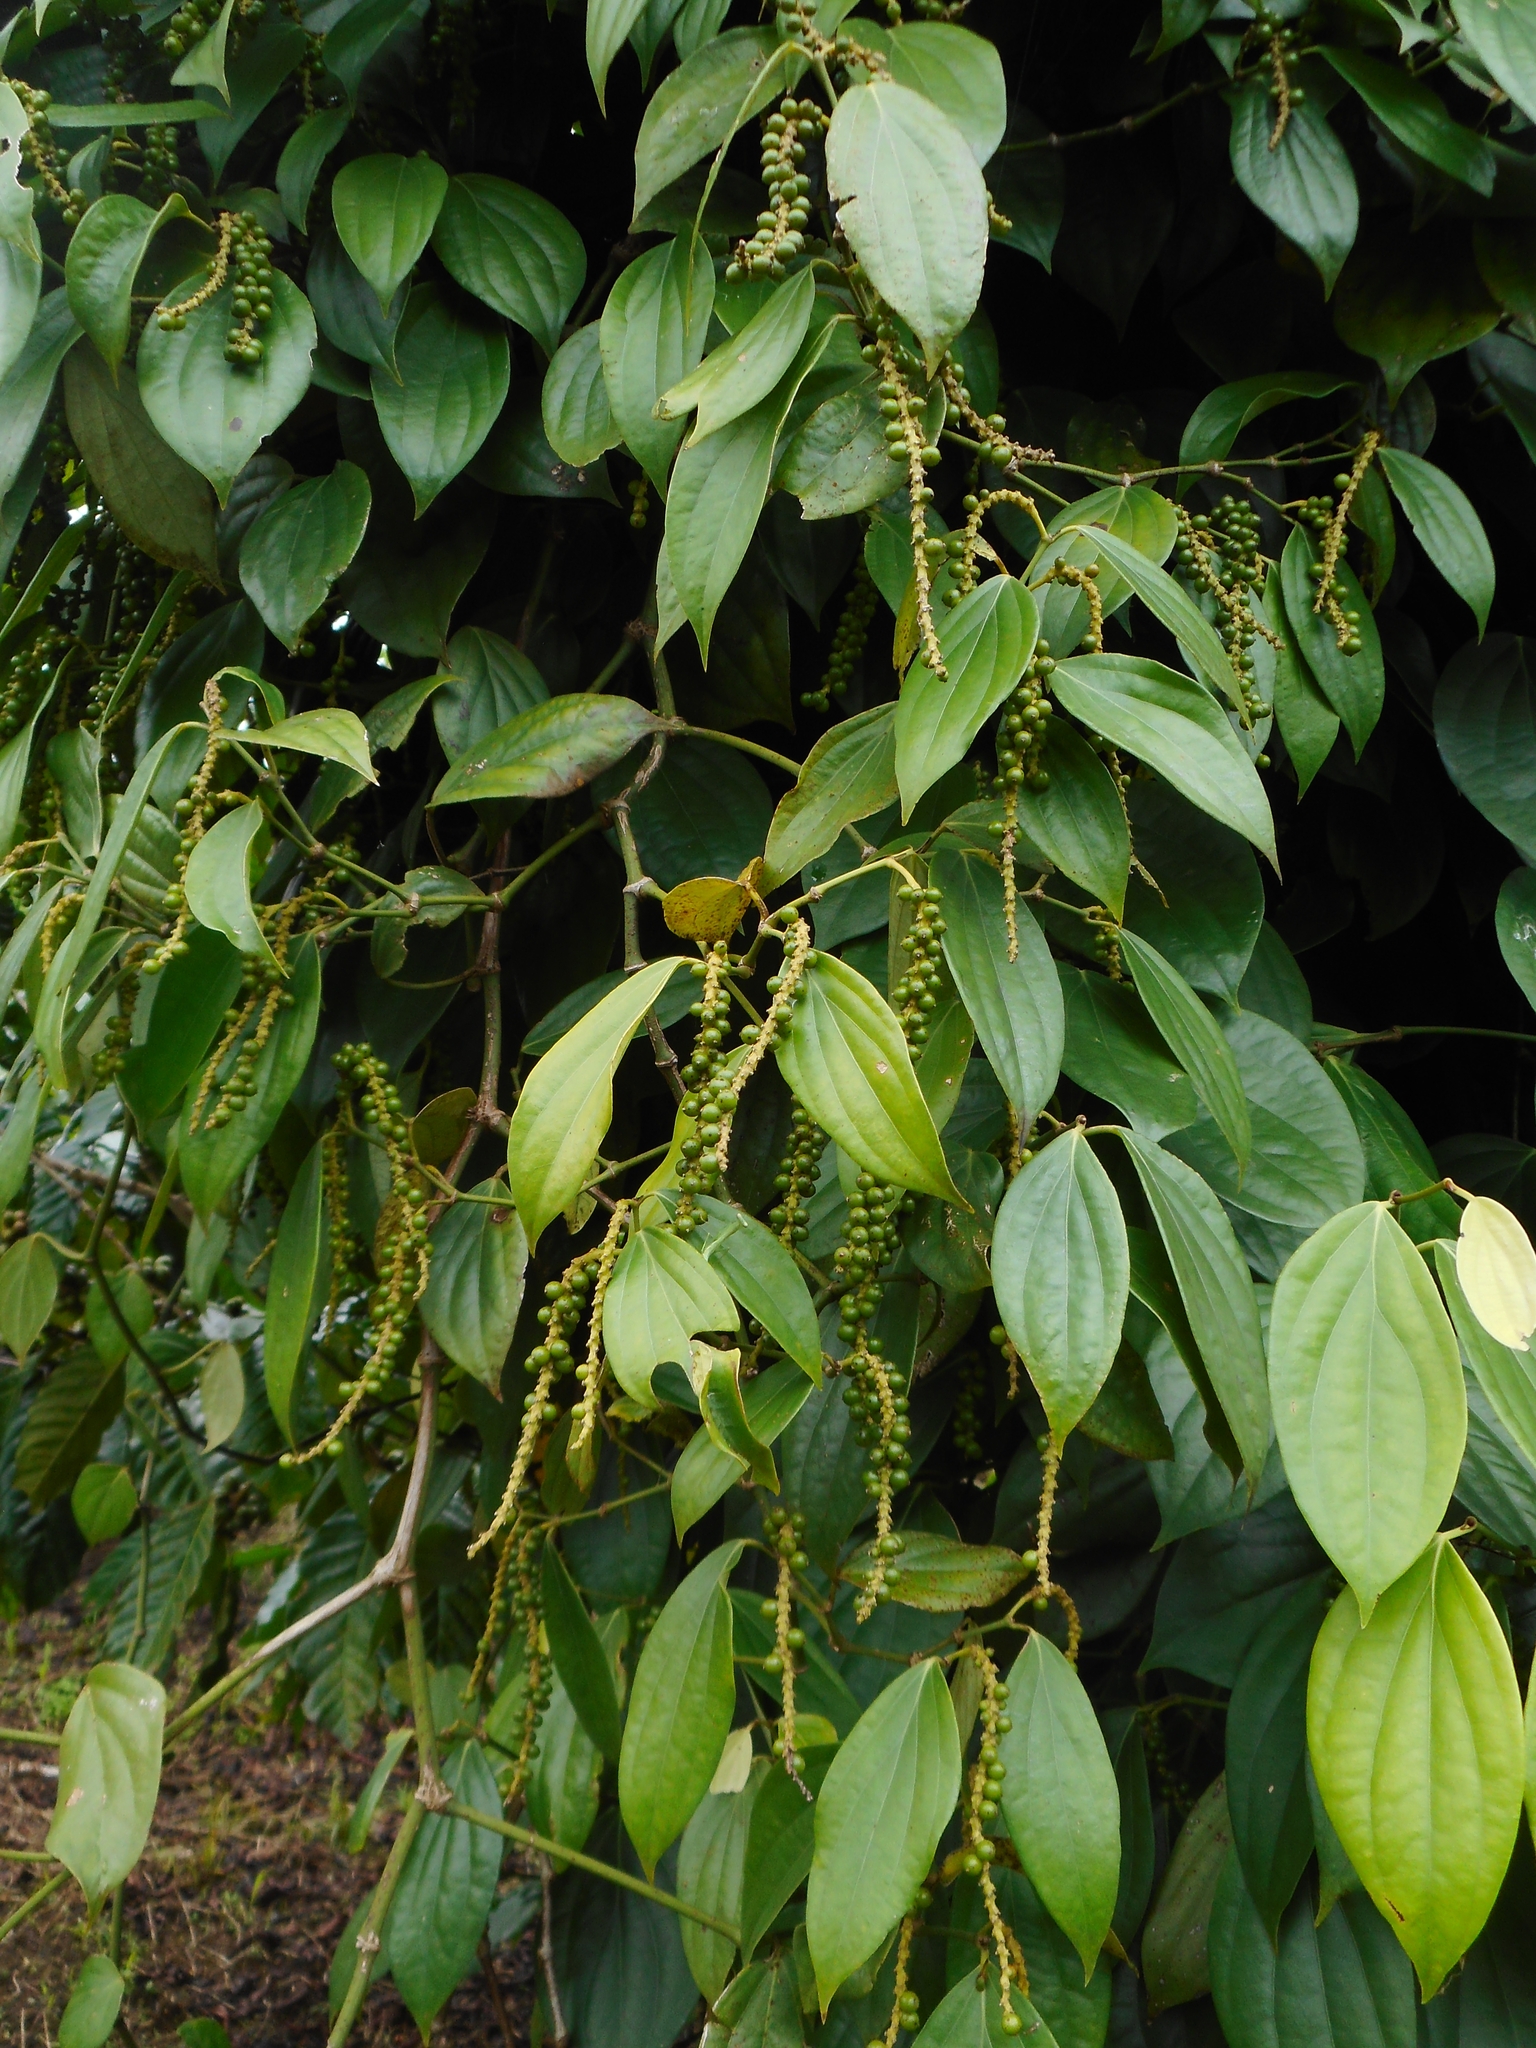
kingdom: Plantae
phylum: Tracheophyta
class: Magnoliopsida
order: Piperales
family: Piperaceae
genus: Piper
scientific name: Piper nigrum
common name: Black pepper
